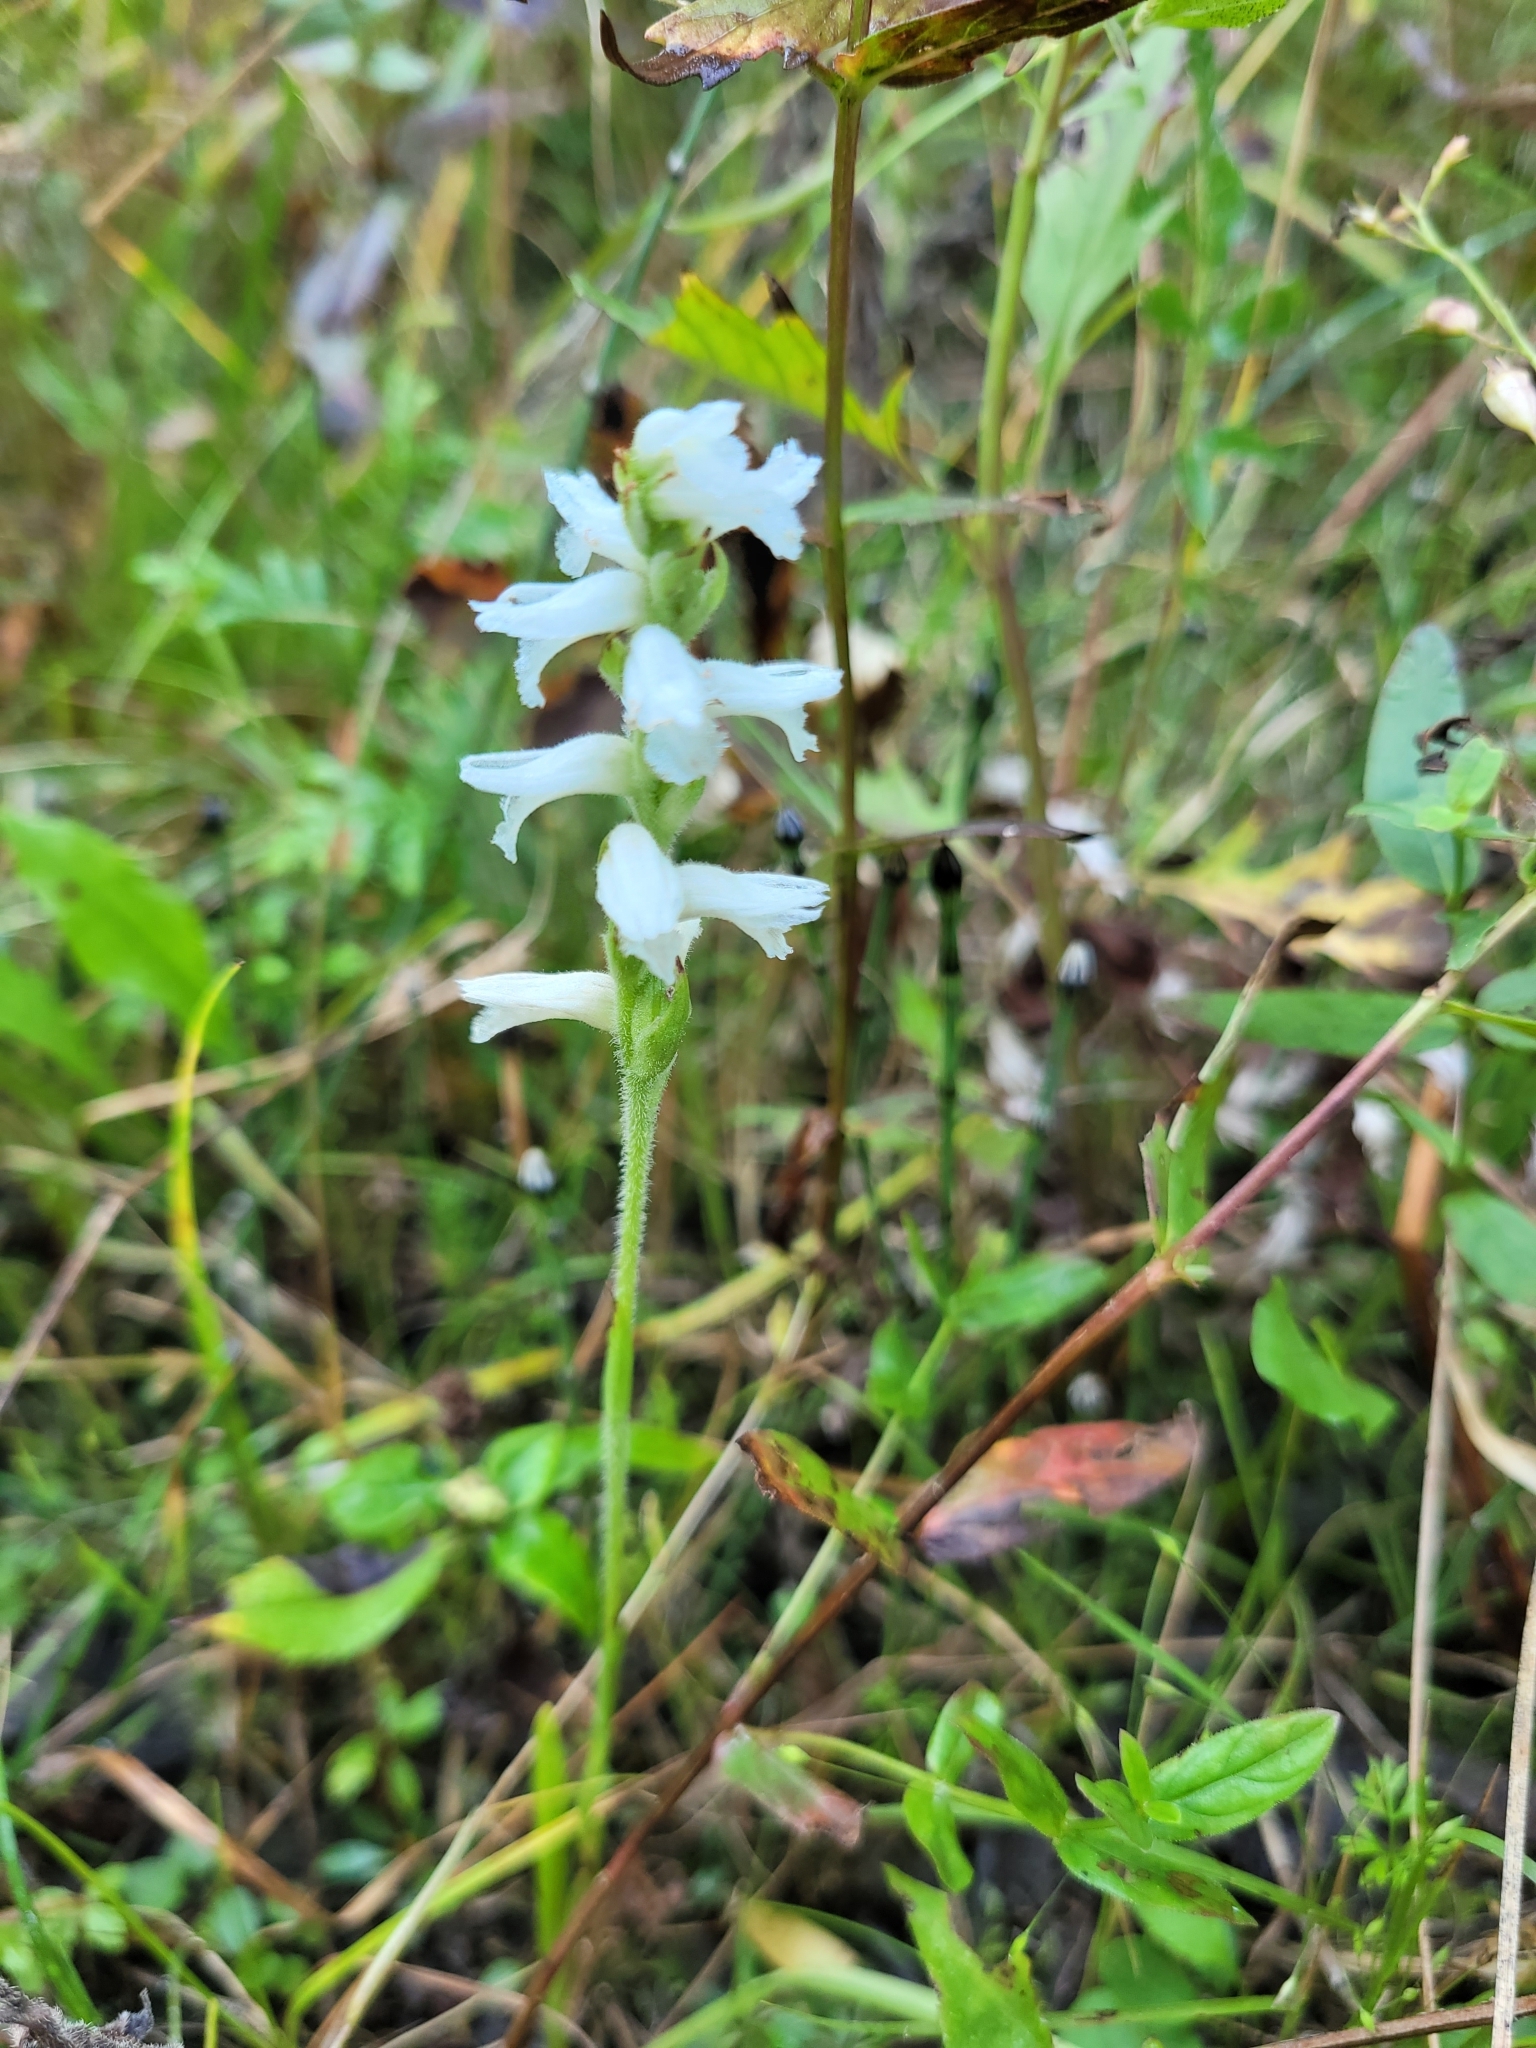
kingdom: Plantae
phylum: Tracheophyta
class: Liliopsida
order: Asparagales
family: Orchidaceae
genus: Spiranthes
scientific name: Spiranthes incurva
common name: Sphinx ladies'-tresses
